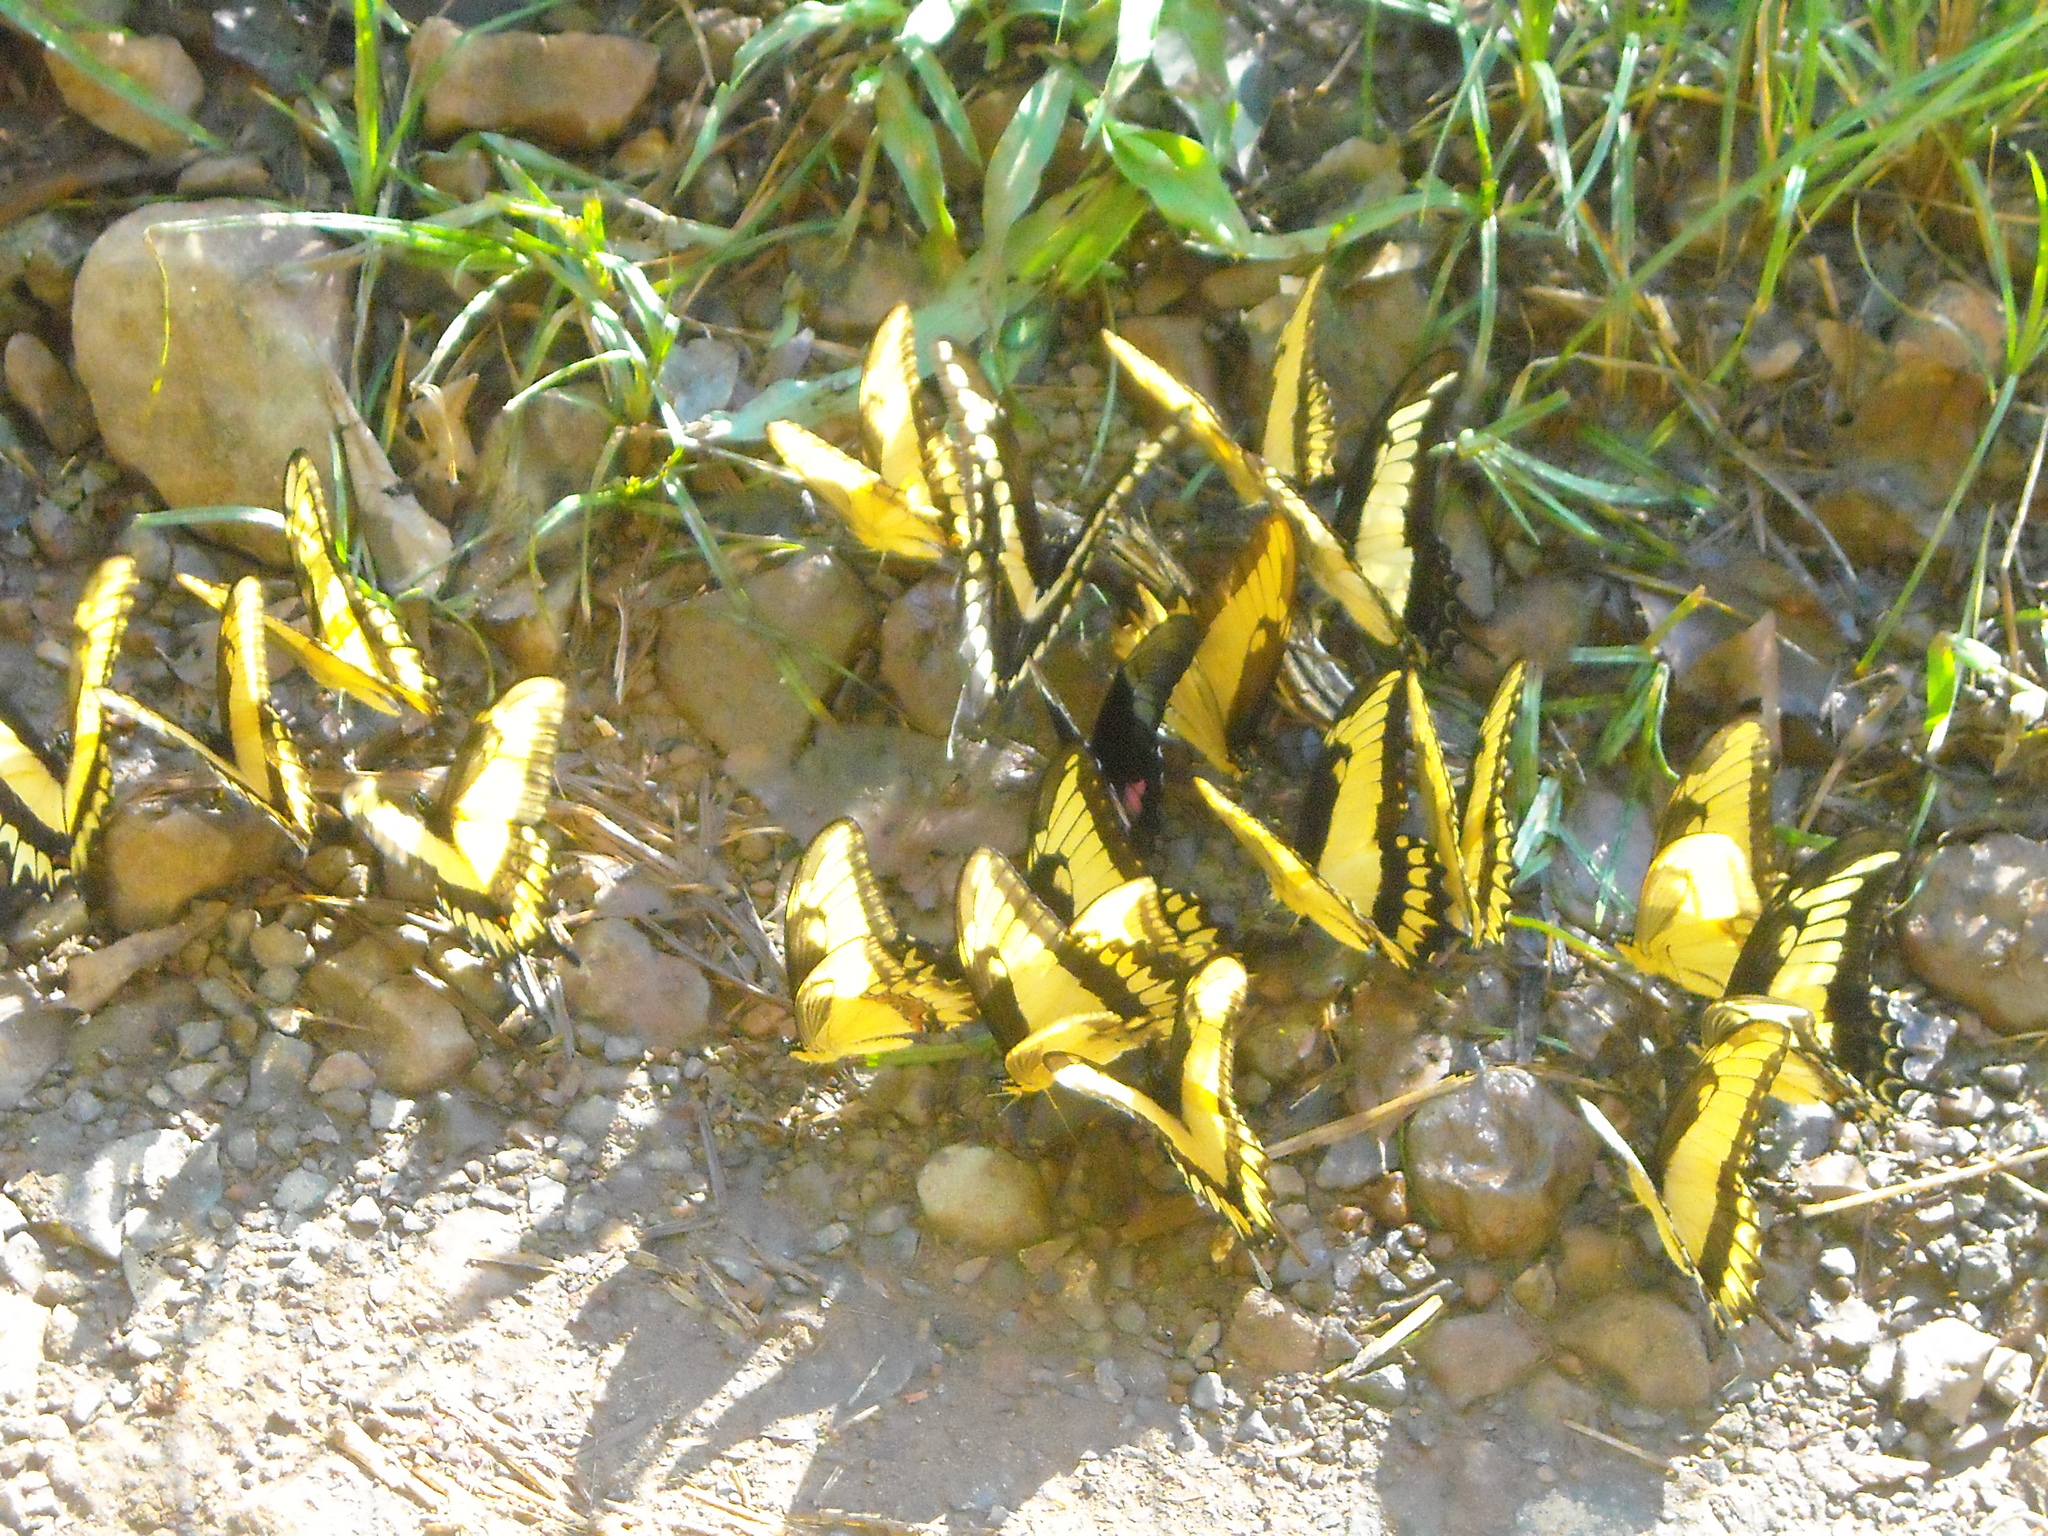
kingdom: Animalia
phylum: Arthropoda
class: Insecta
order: Lepidoptera
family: Papilionidae
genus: Papilio
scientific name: Papilio astyalus
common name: Astyalus swallowtail
